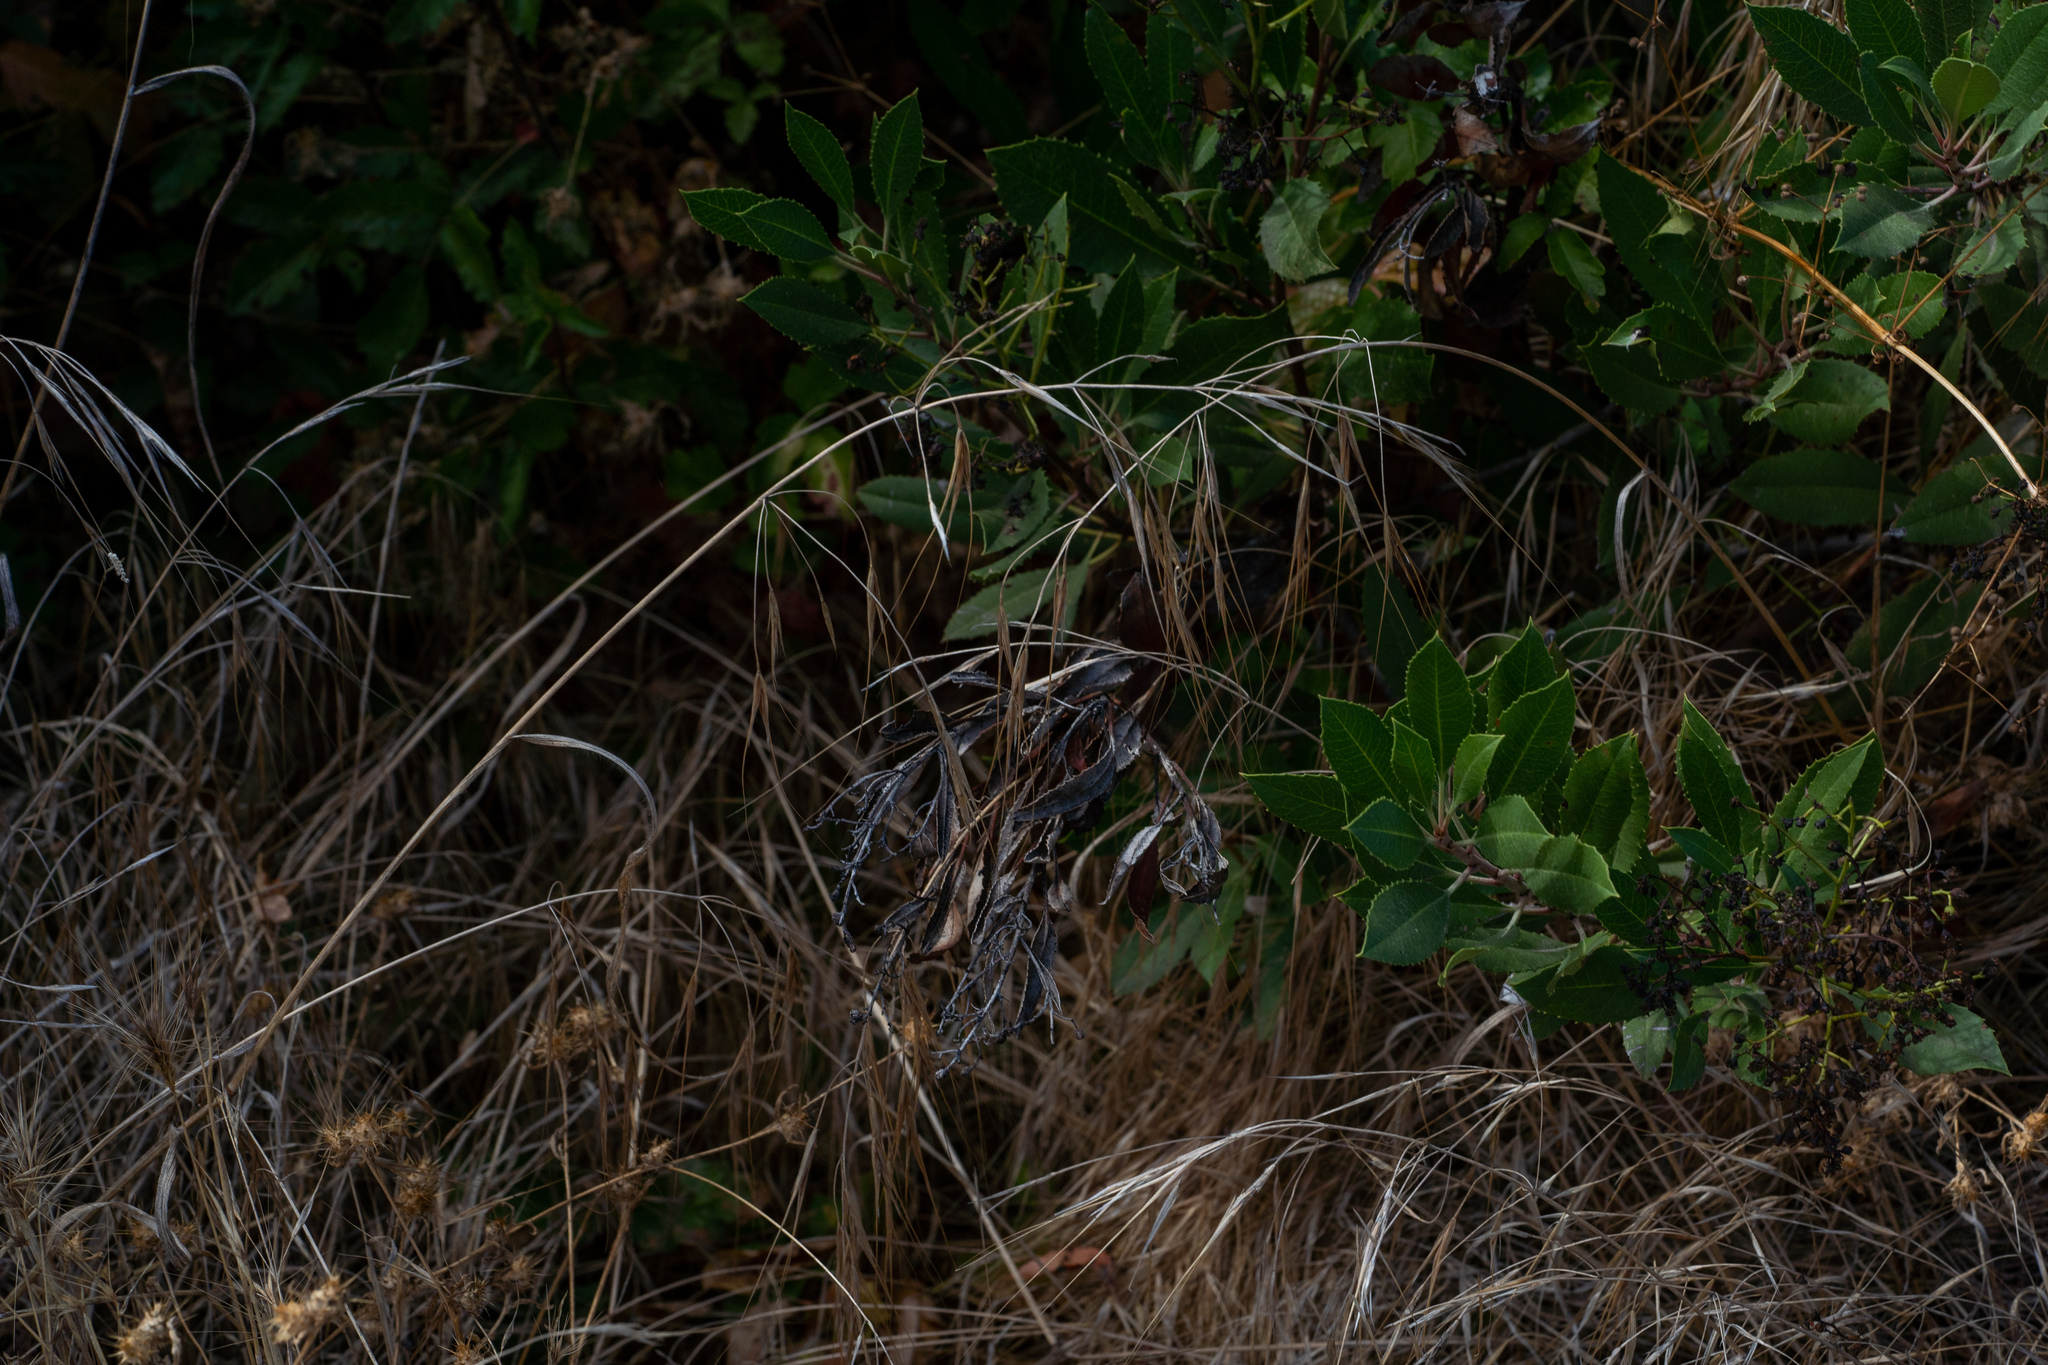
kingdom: Plantae
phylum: Tracheophyta
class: Liliopsida
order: Poales
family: Poaceae
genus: Bromus
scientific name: Bromus diandrus
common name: Ripgut brome
